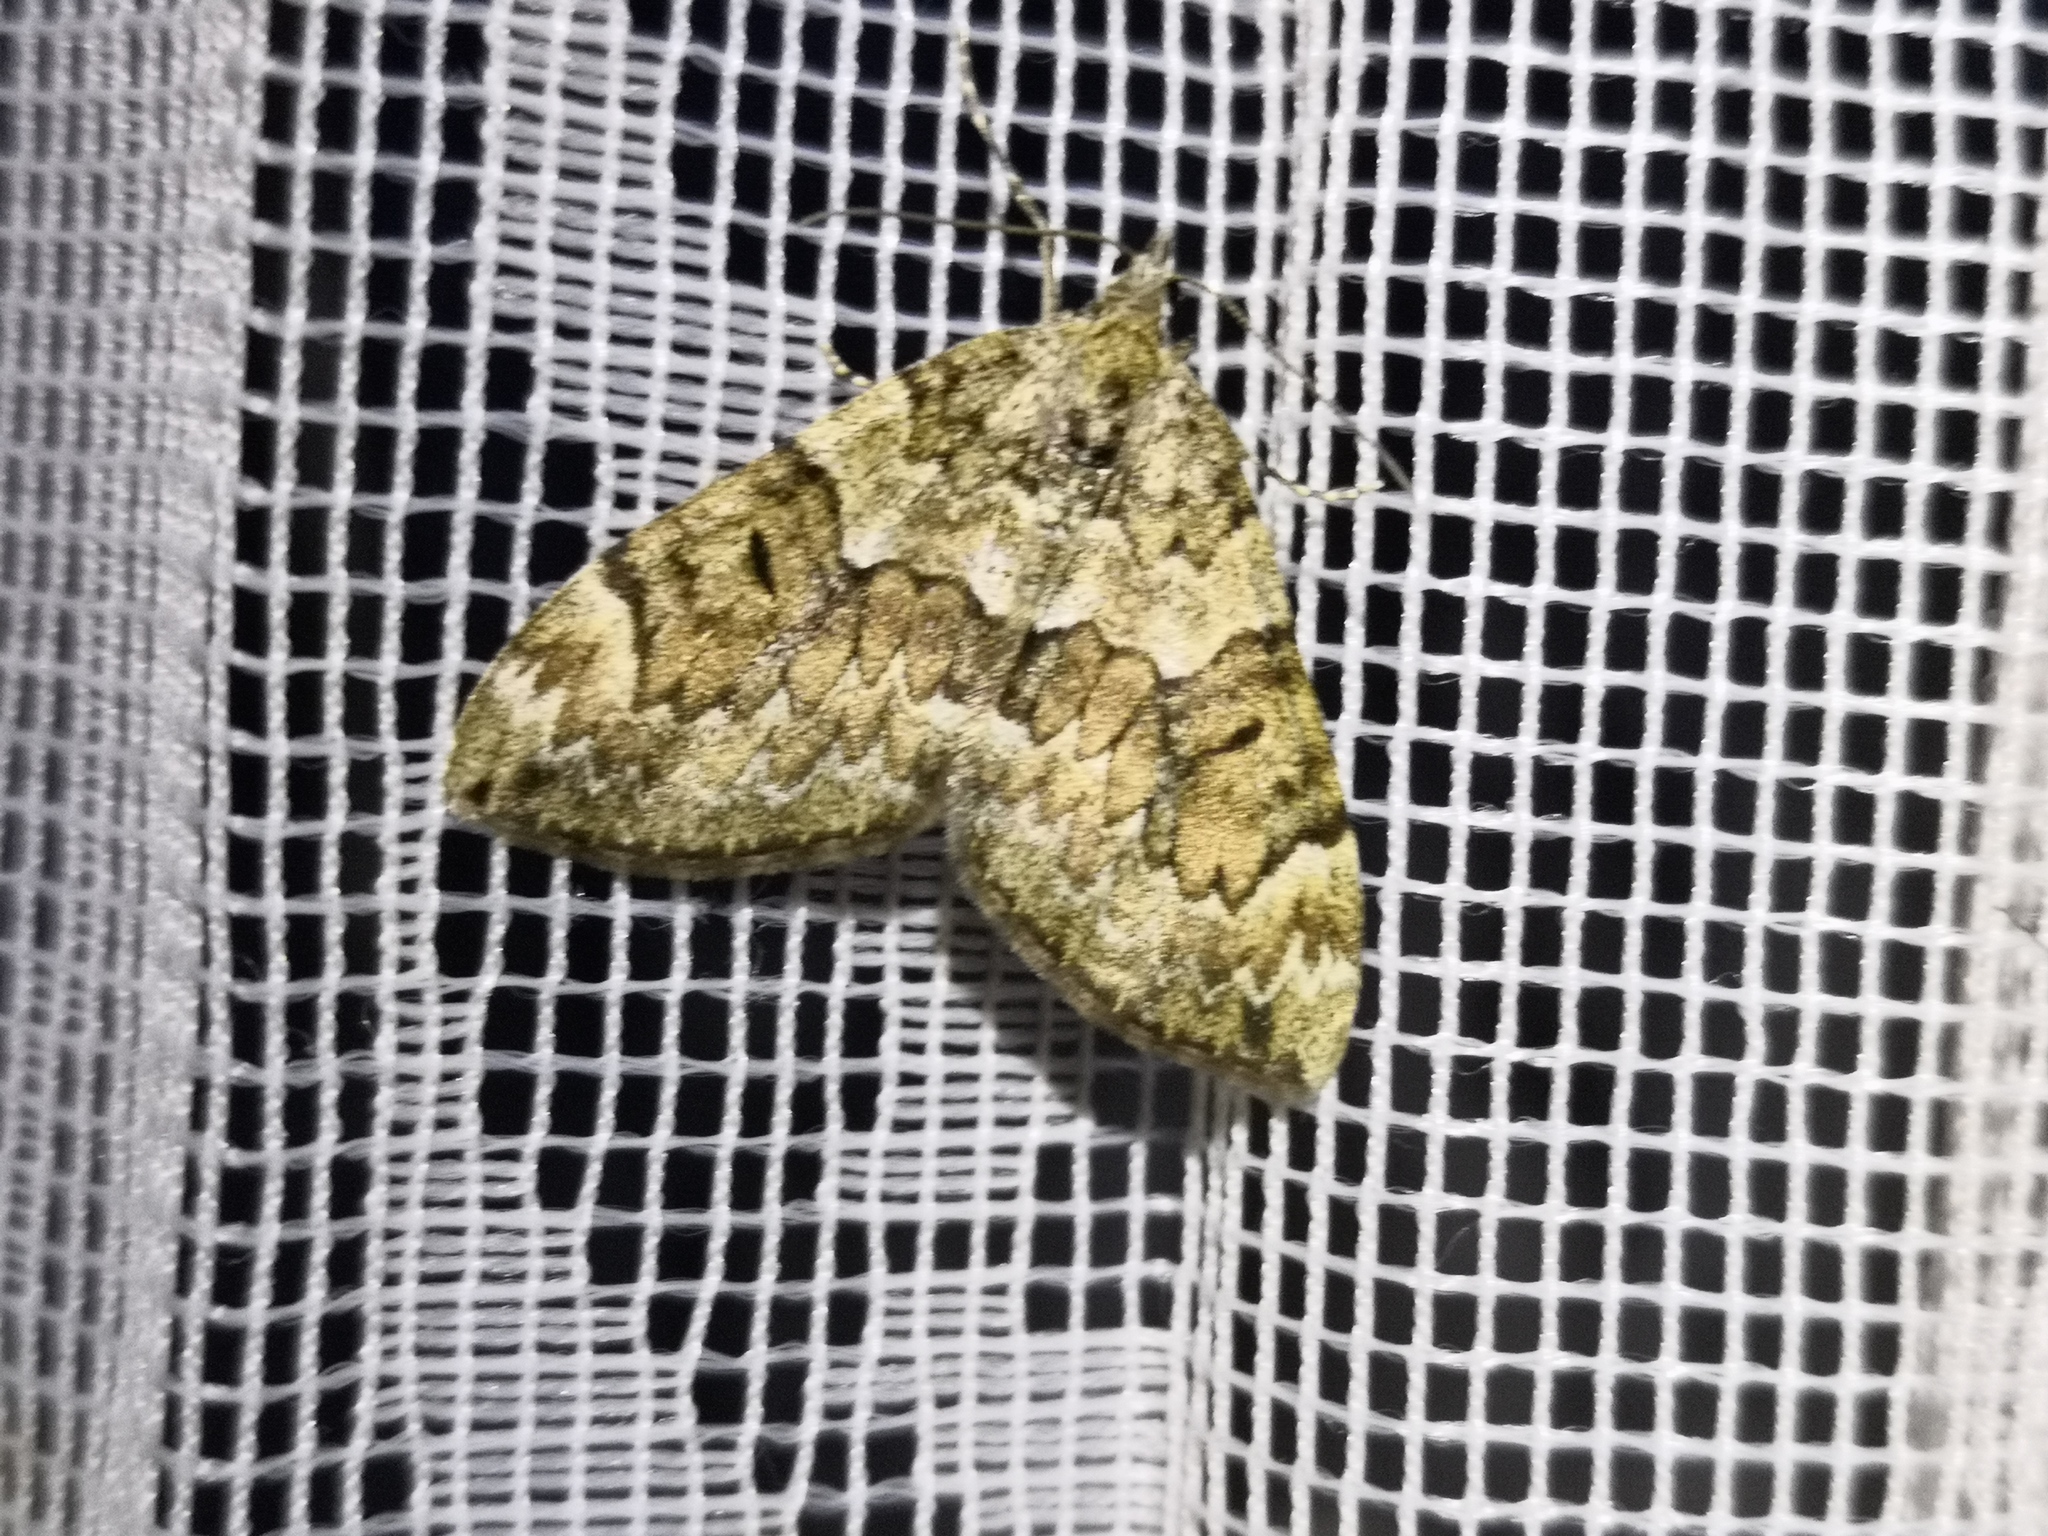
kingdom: Animalia
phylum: Arthropoda
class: Insecta
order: Lepidoptera
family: Geometridae
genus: Thera
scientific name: Thera variata
